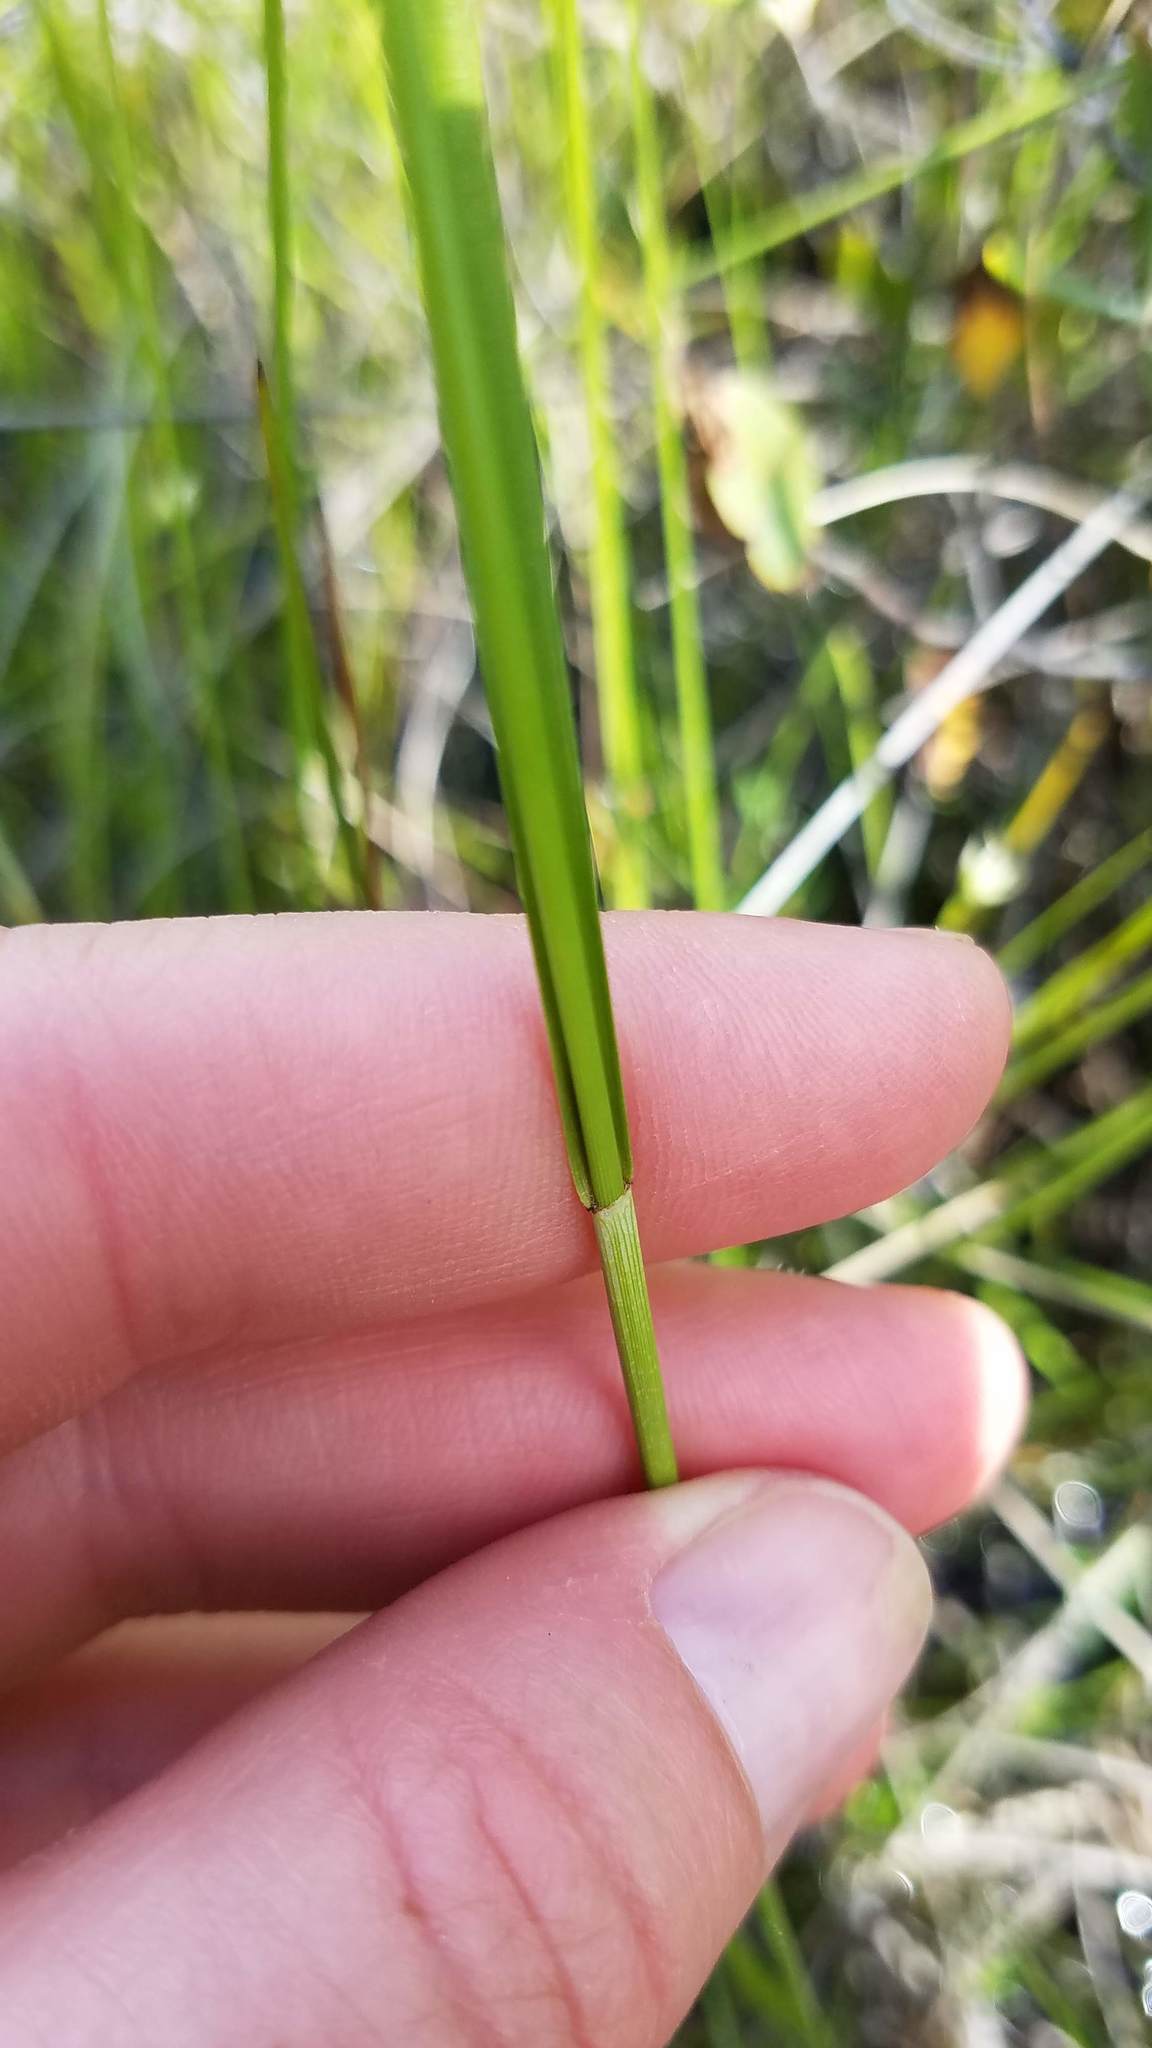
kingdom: Plantae
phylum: Tracheophyta
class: Liliopsida
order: Poales
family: Cyperaceae
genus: Eriophorum
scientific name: Eriophorum virginicum
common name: Tawny cottongrass
